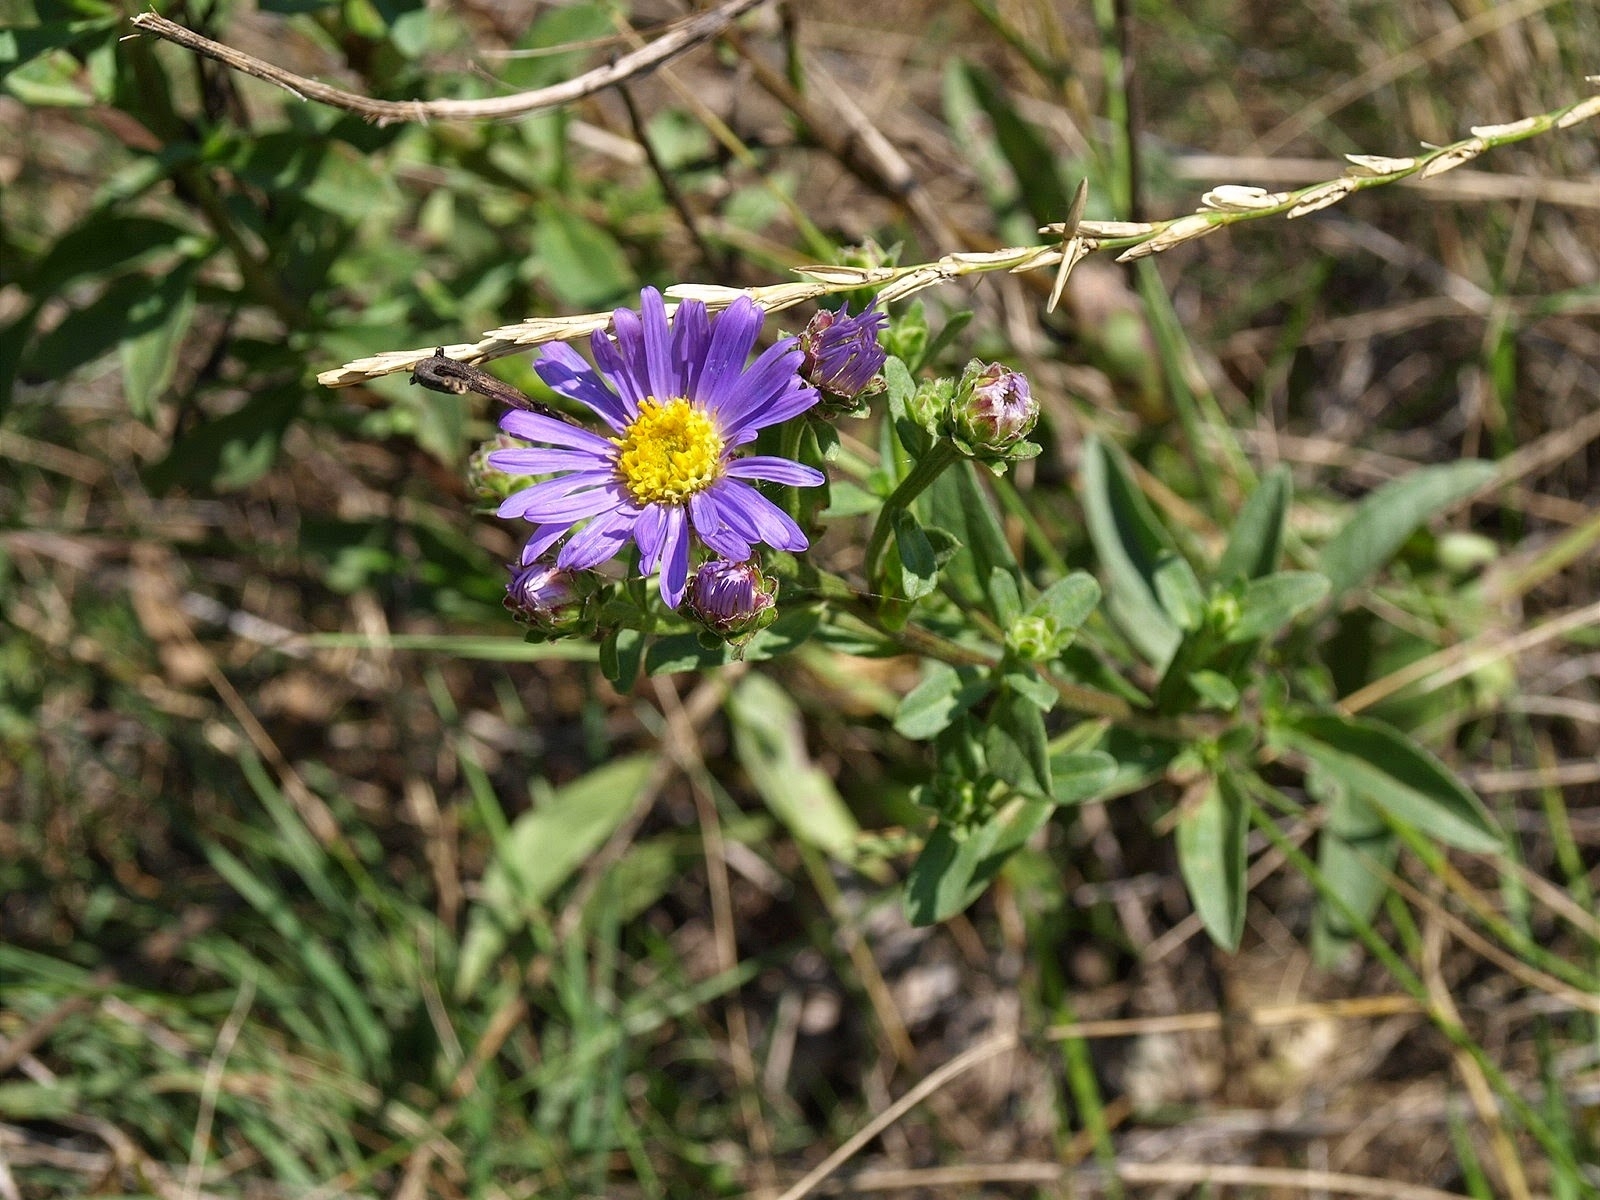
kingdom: Plantae
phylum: Tracheophyta
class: Magnoliopsida
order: Asterales
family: Asteraceae
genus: Aster
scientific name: Aster amellus
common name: European michaelmas daisy
